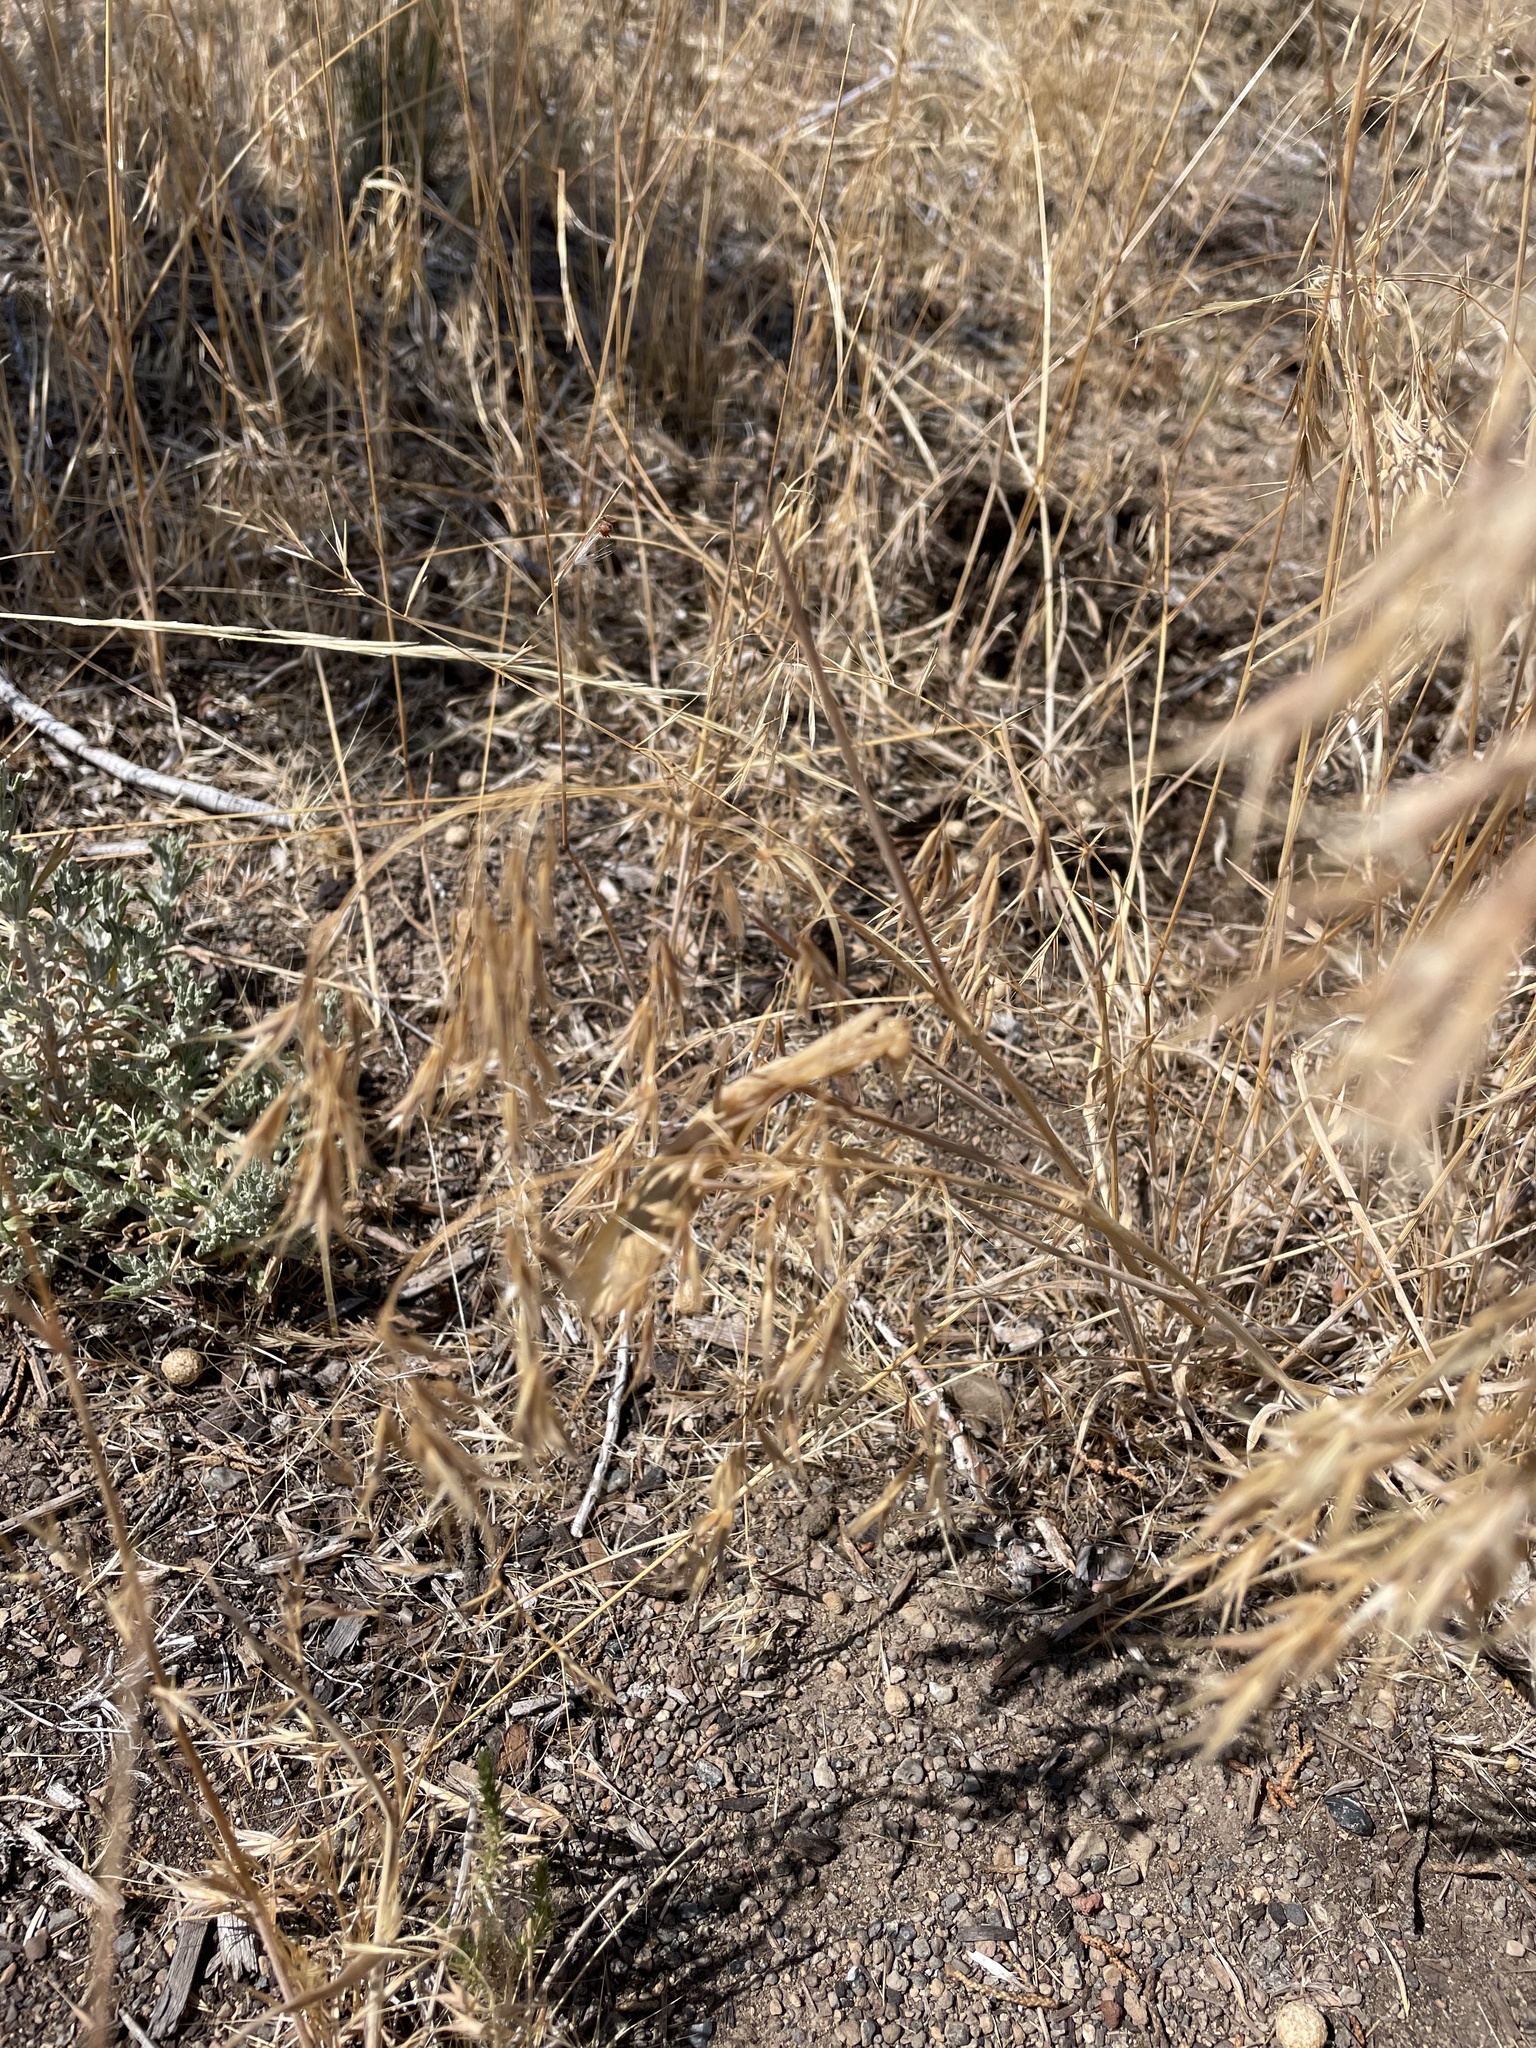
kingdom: Animalia
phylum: Arthropoda
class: Insecta
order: Mantodea
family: Mantidae
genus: Mantis
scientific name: Mantis religiosa
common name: Praying mantis
